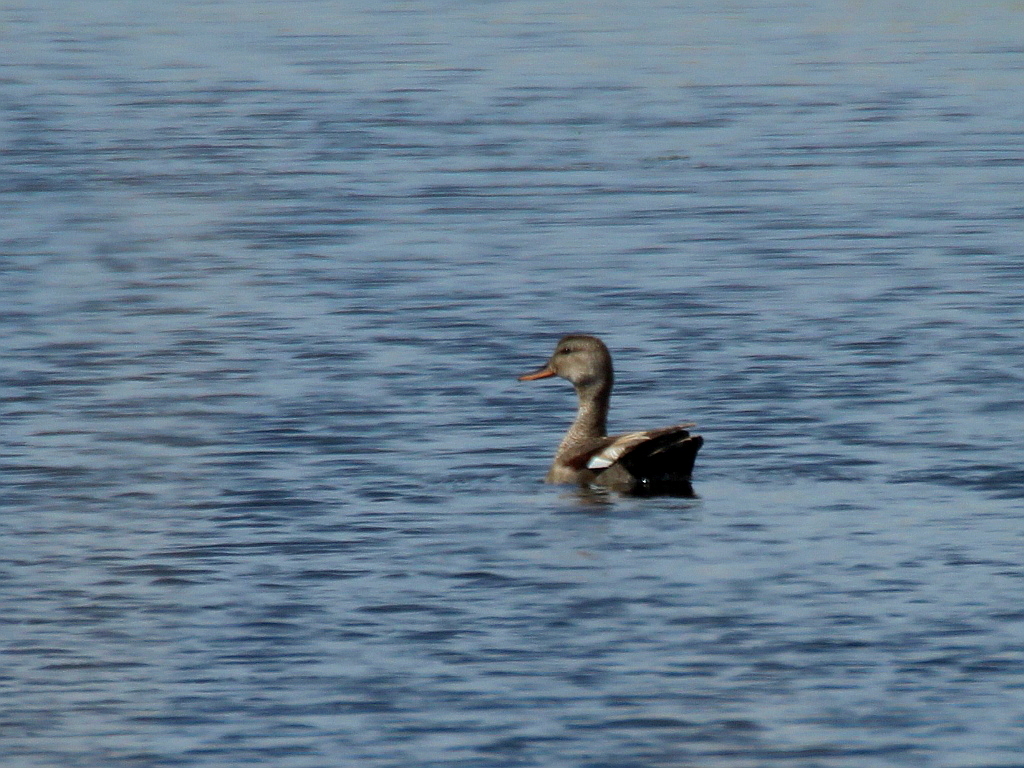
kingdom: Animalia
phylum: Chordata
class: Aves
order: Anseriformes
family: Anatidae
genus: Mareca
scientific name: Mareca strepera
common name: Gadwall
